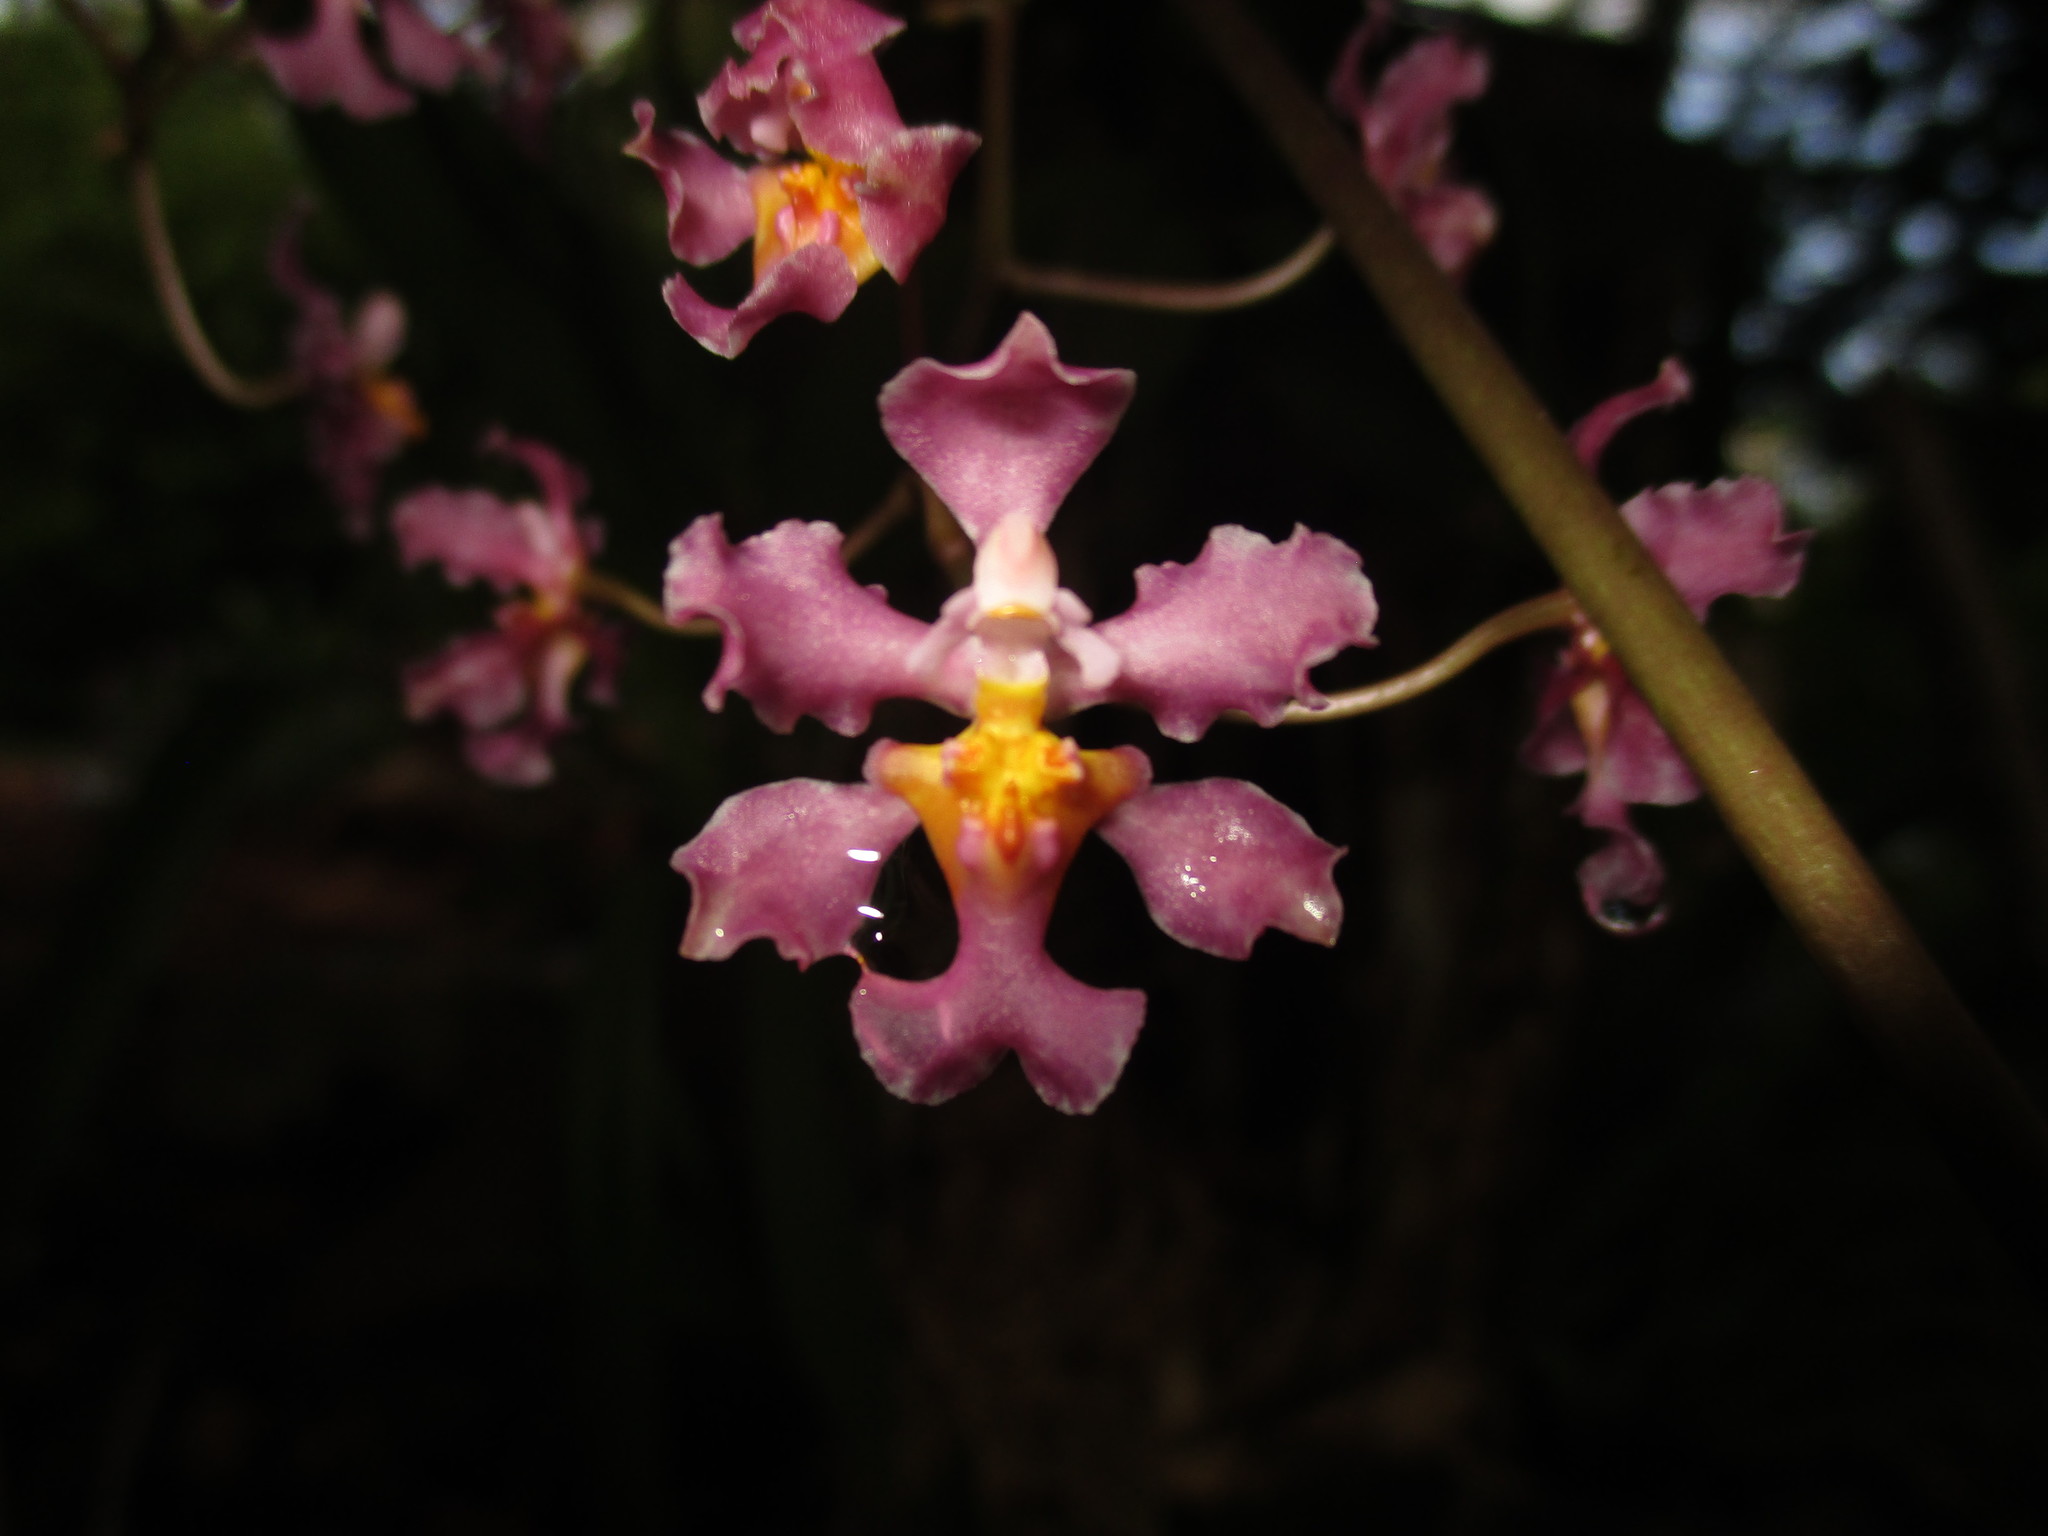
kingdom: Plantae
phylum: Tracheophyta
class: Liliopsida
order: Asparagales
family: Orchidaceae
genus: Trichocentrum
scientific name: Trichocentrum andrewsiae
